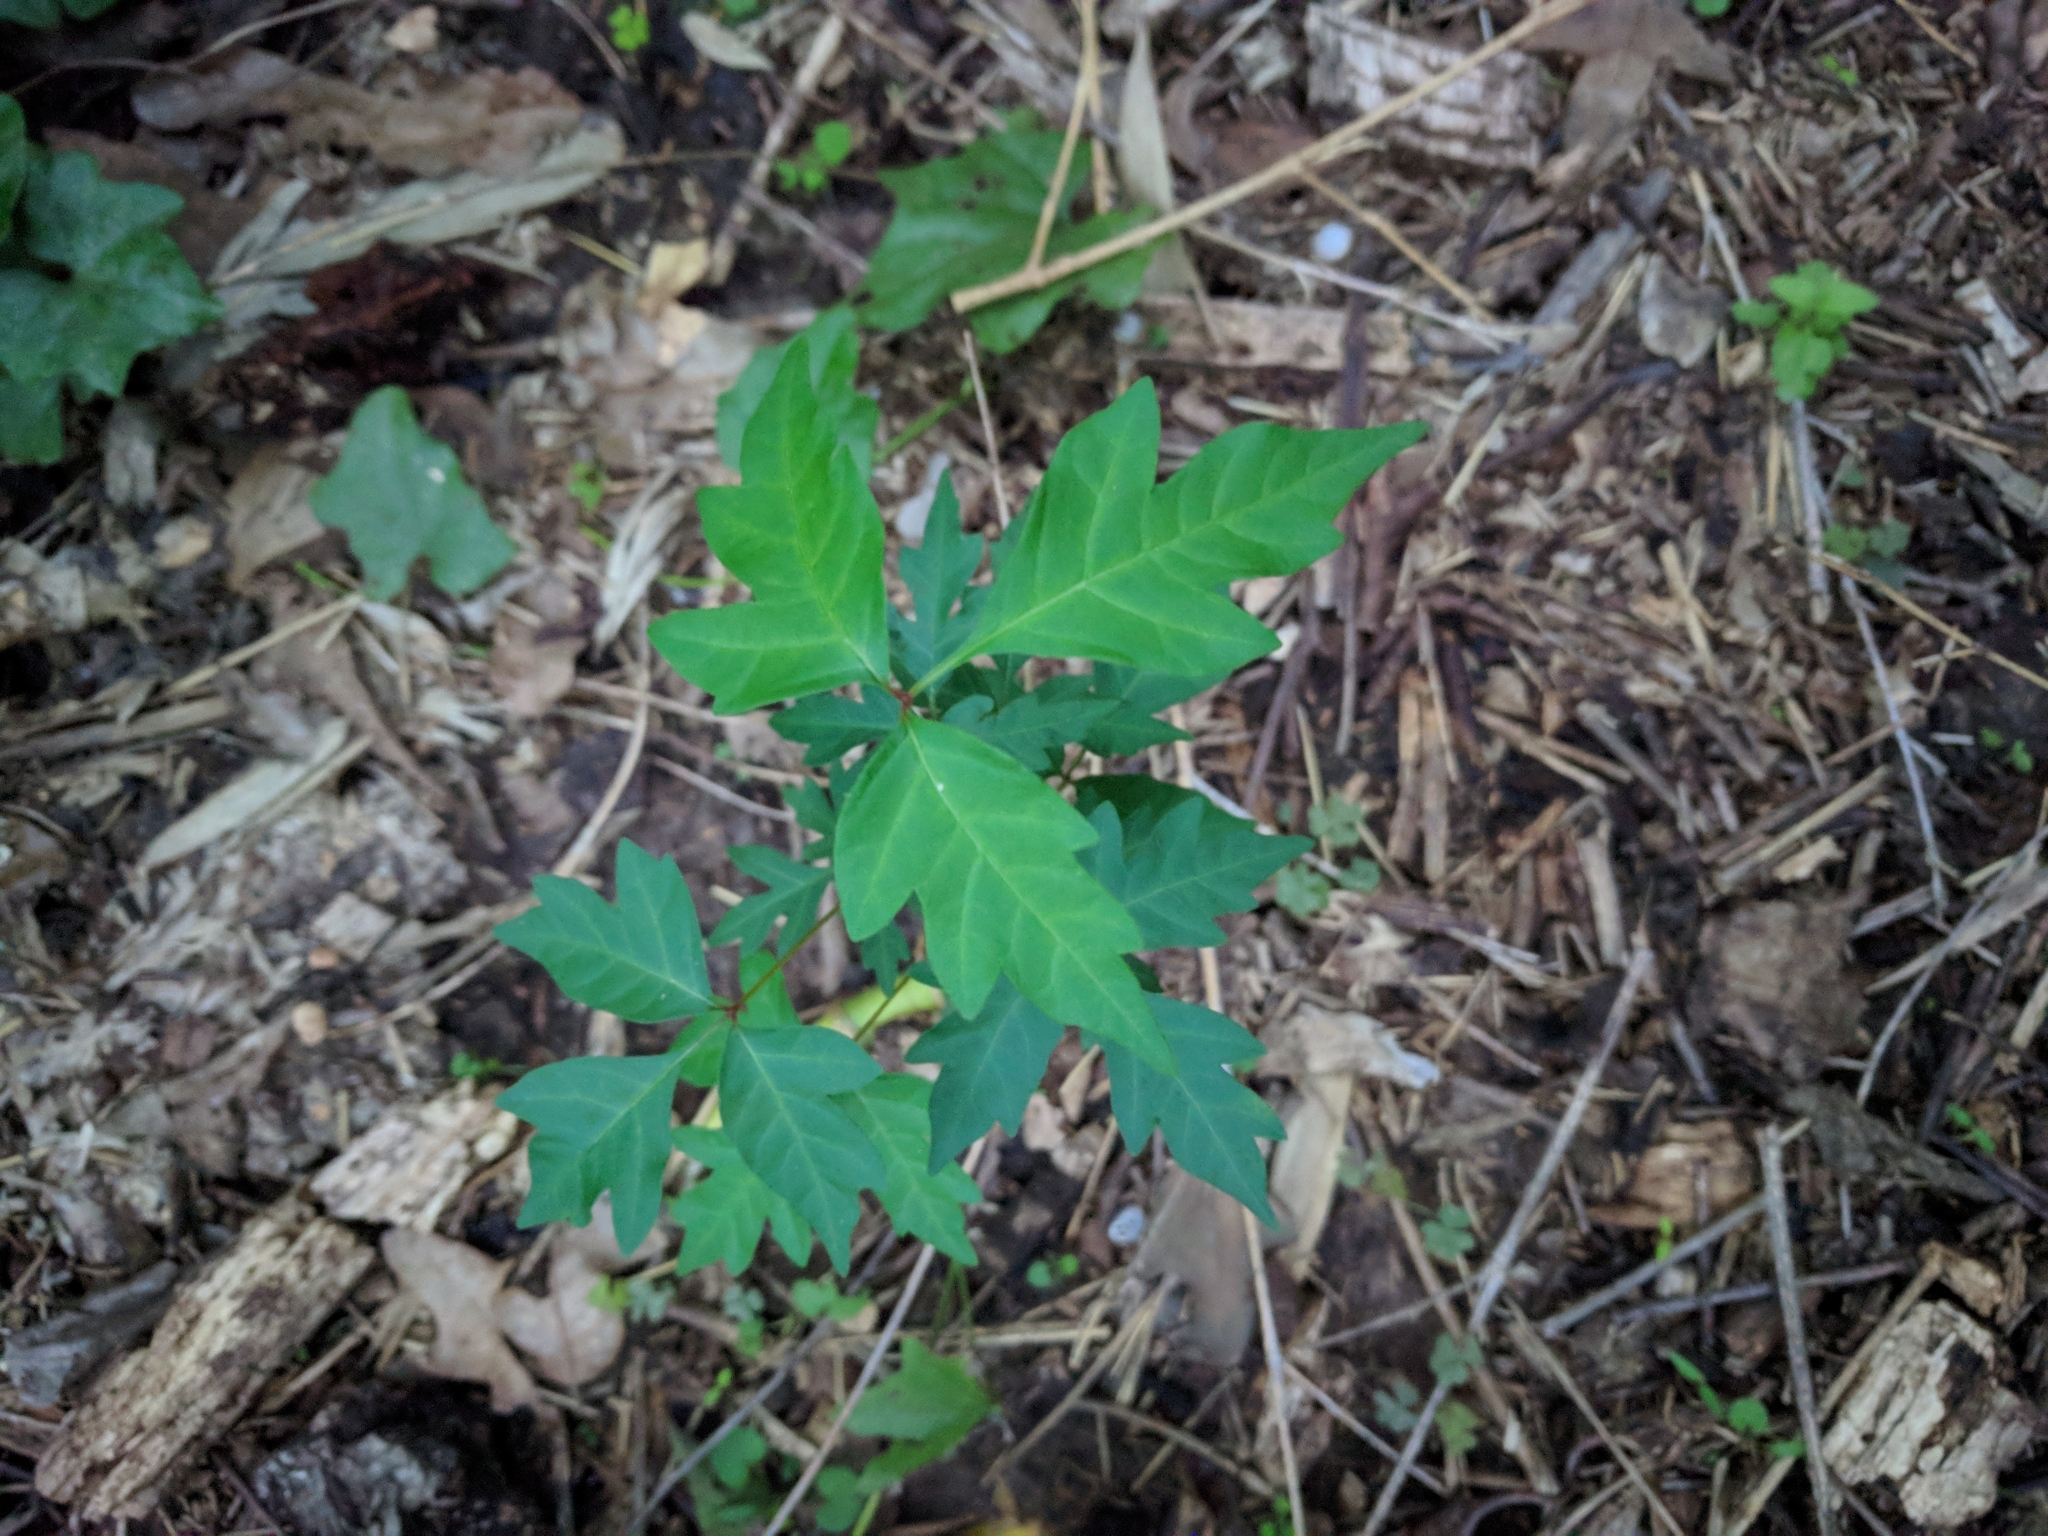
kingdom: Plantae
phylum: Tracheophyta
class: Magnoliopsida
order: Sapindales
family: Anacardiaceae
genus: Toxicodendron
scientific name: Toxicodendron radicans
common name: Poison ivy
